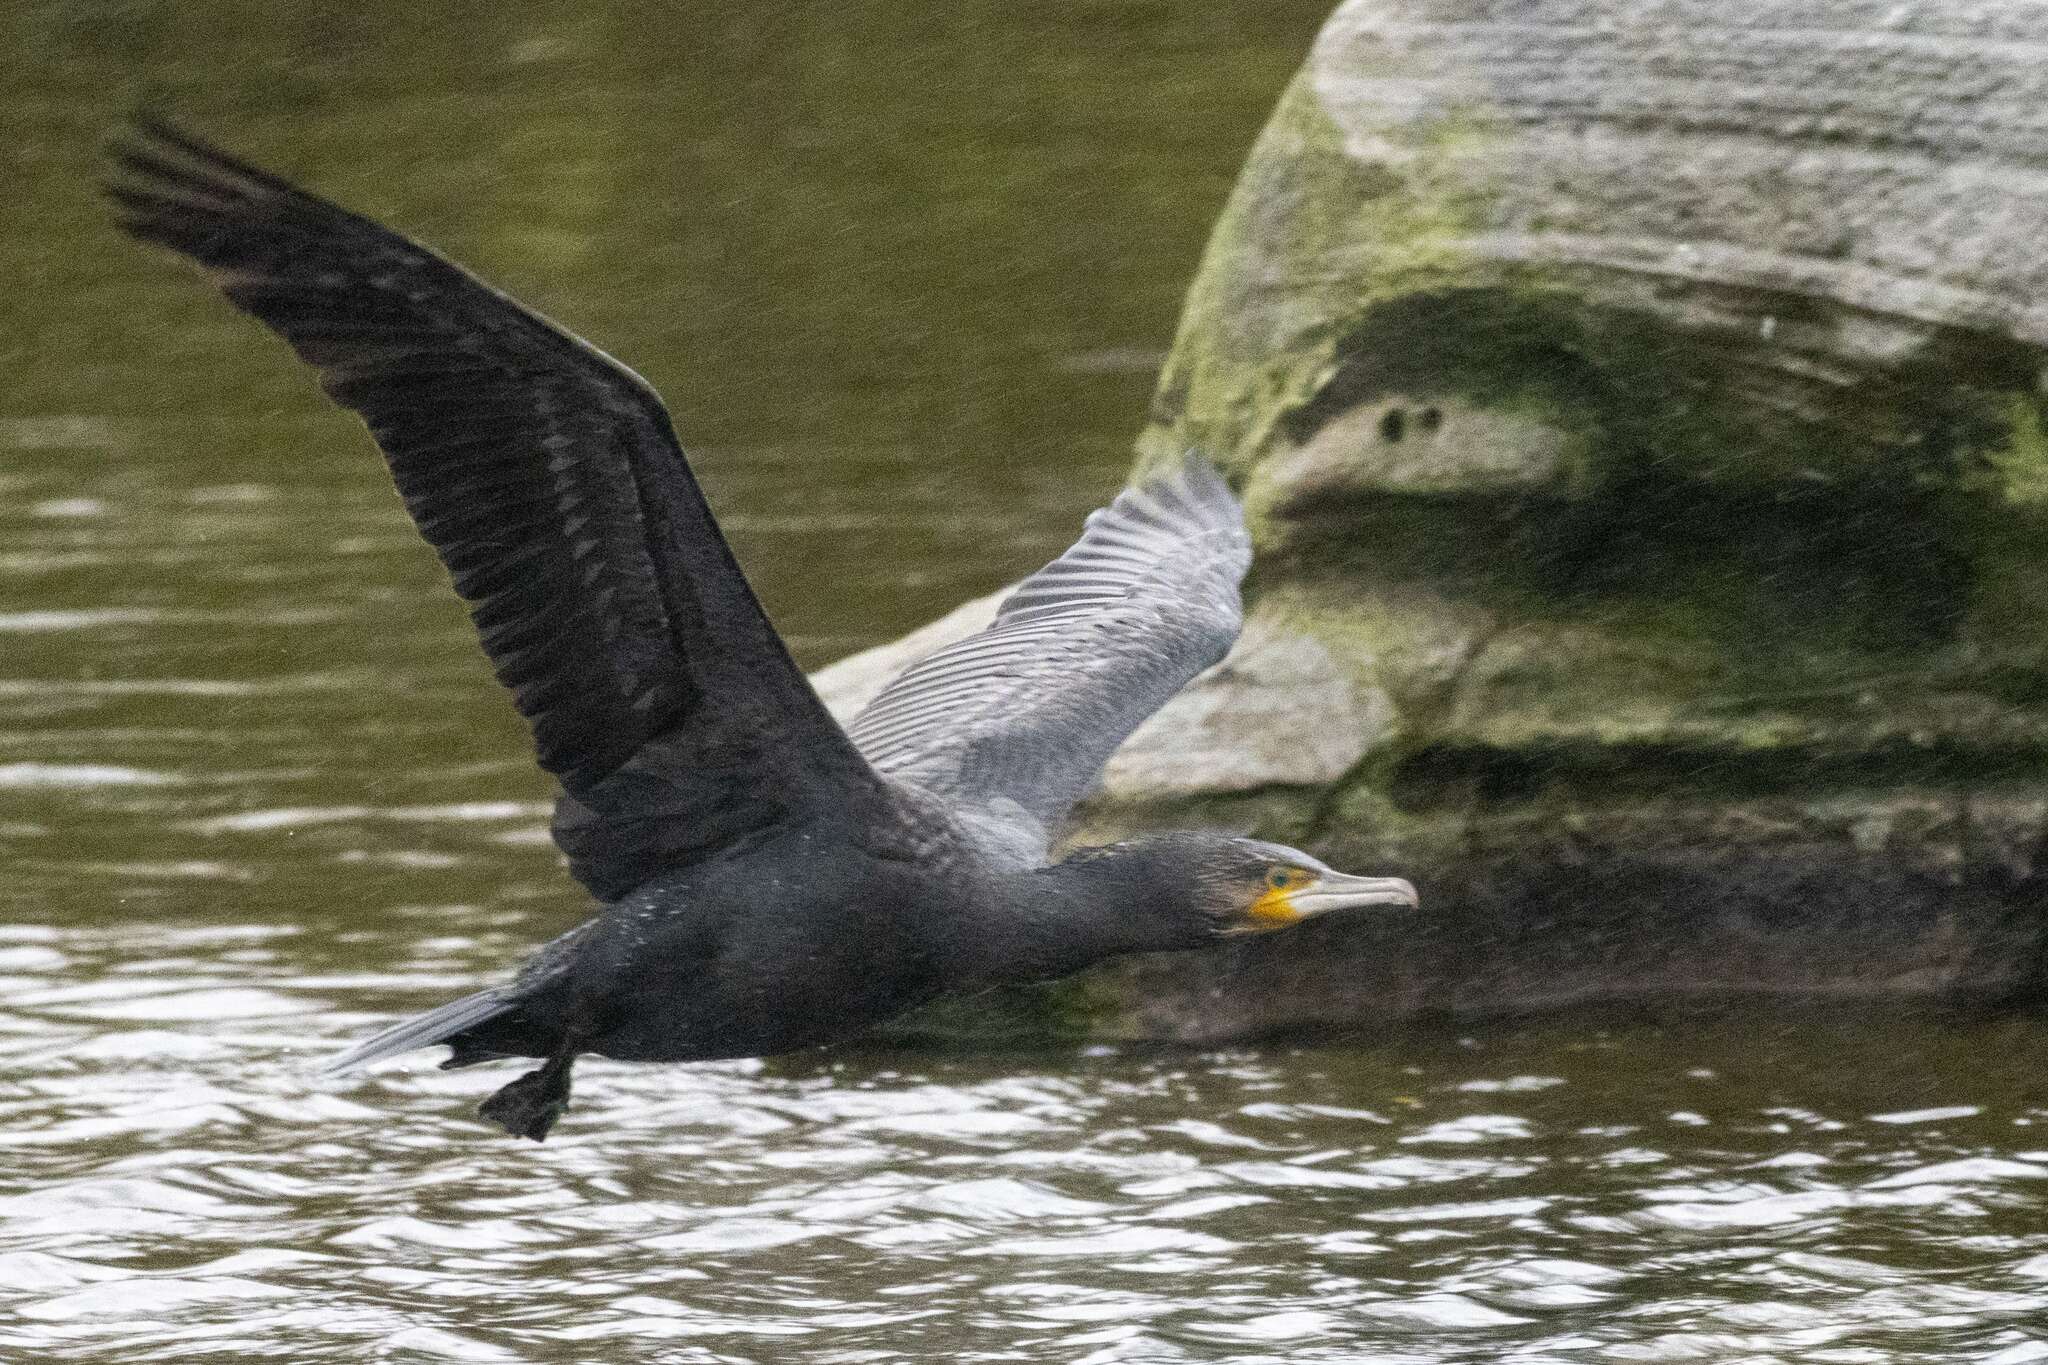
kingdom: Animalia
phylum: Chordata
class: Aves
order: Suliformes
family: Phalacrocoracidae
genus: Phalacrocorax
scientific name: Phalacrocorax carbo
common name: Great cormorant
